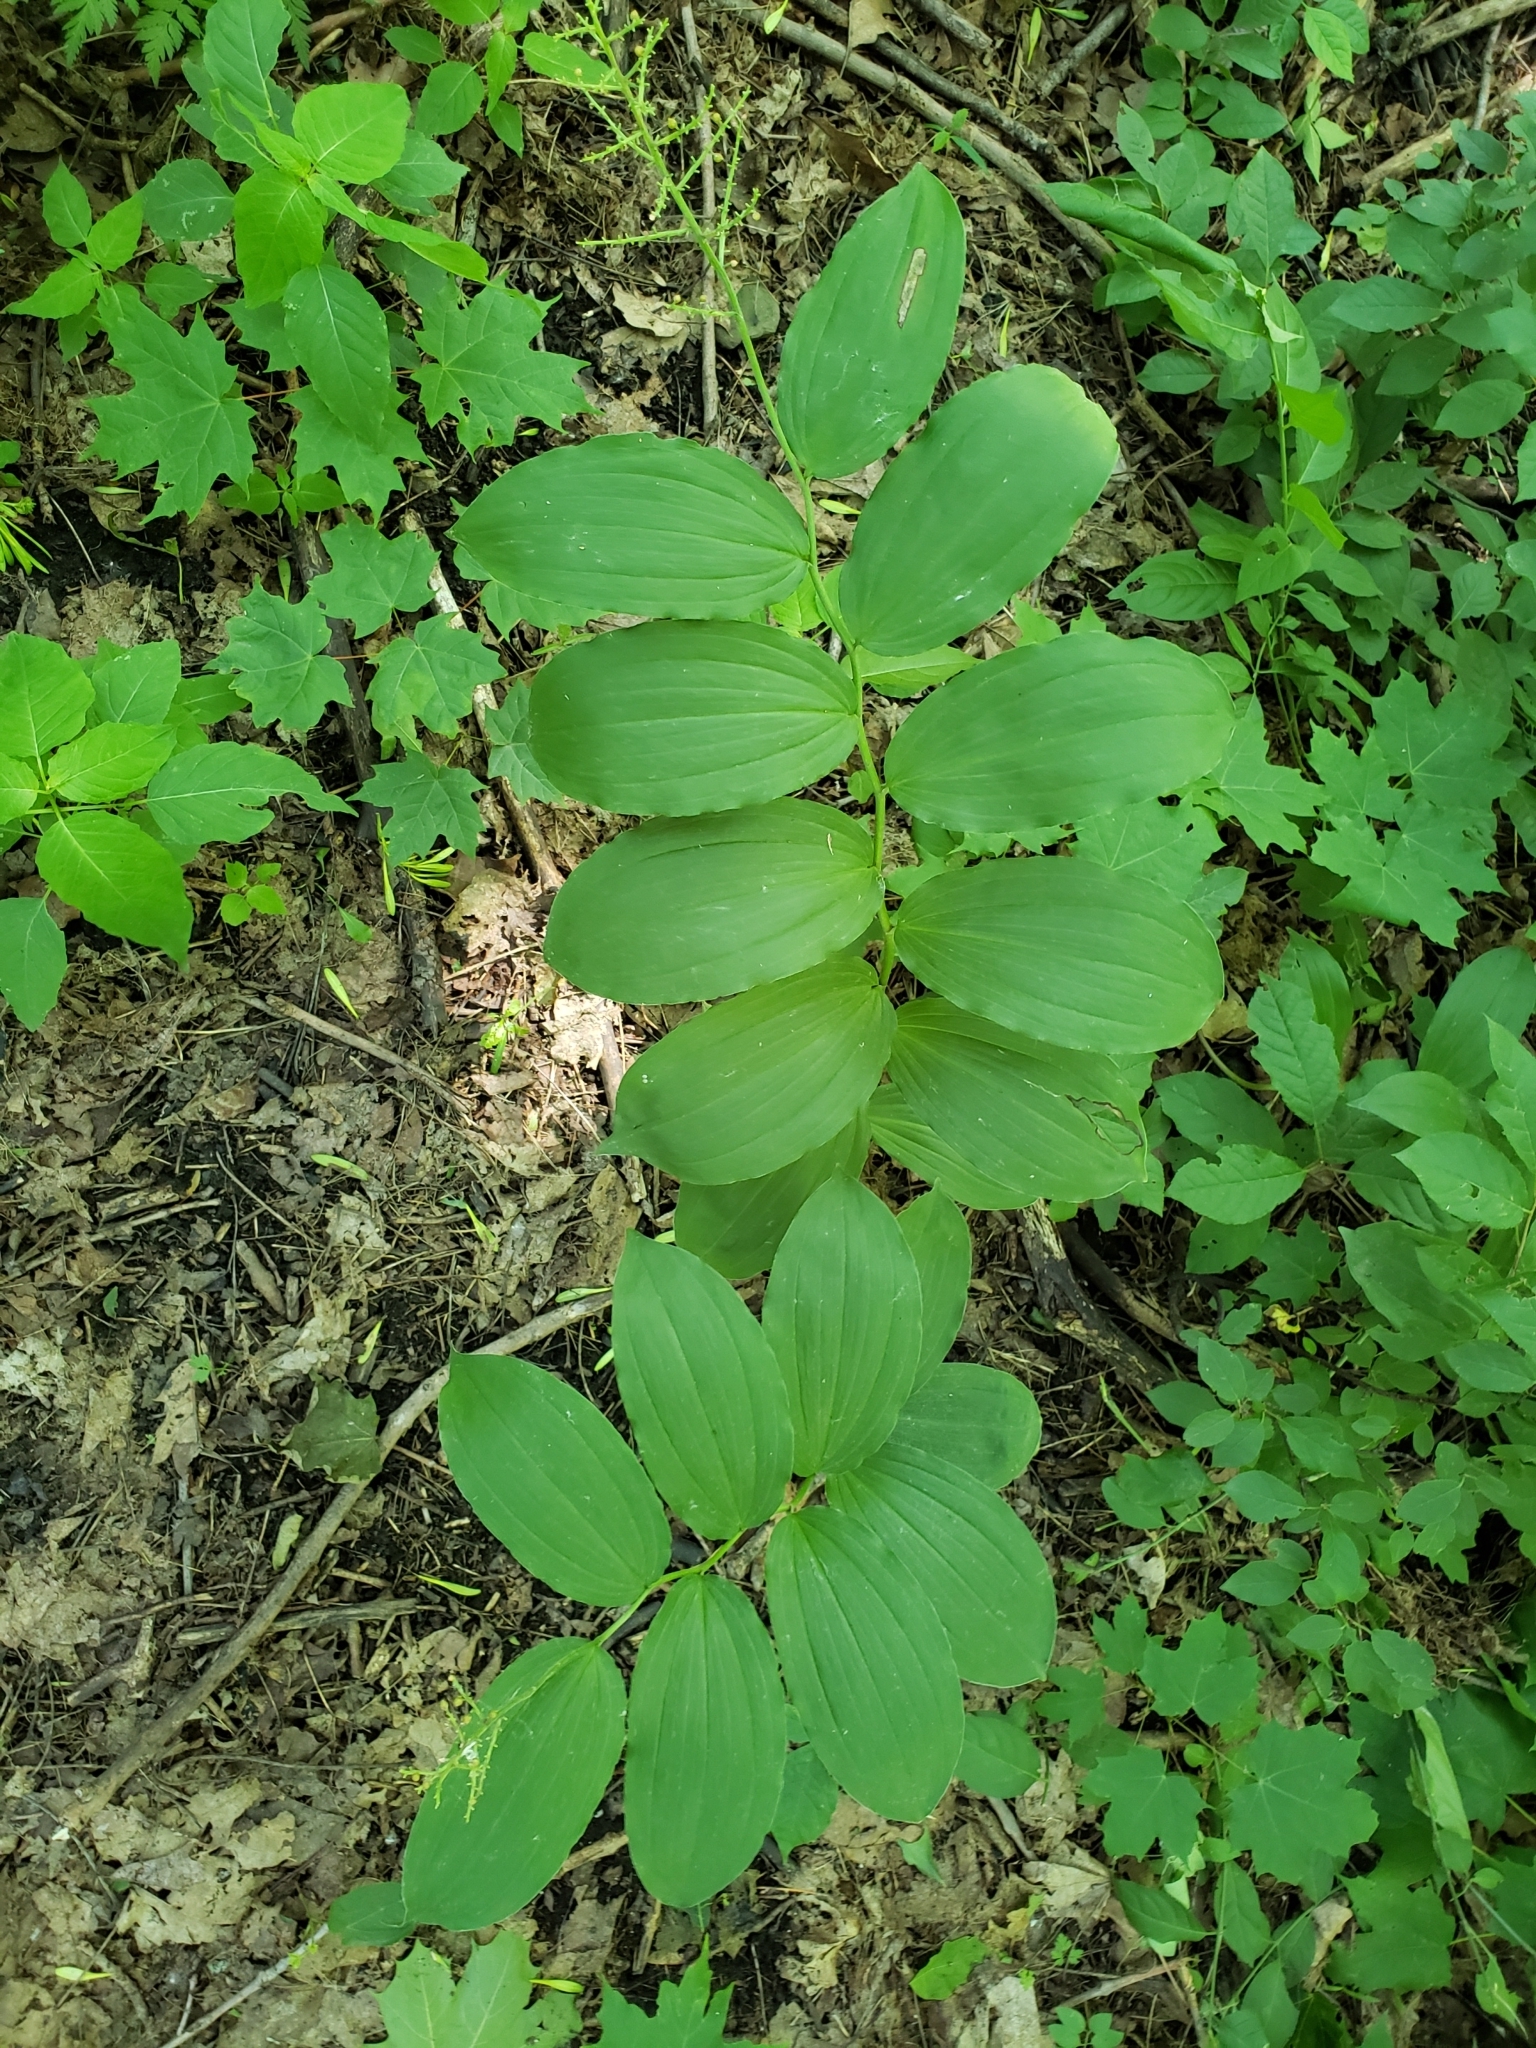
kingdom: Plantae
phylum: Tracheophyta
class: Liliopsida
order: Asparagales
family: Asparagaceae
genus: Maianthemum
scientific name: Maianthemum racemosum
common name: False spikenard
